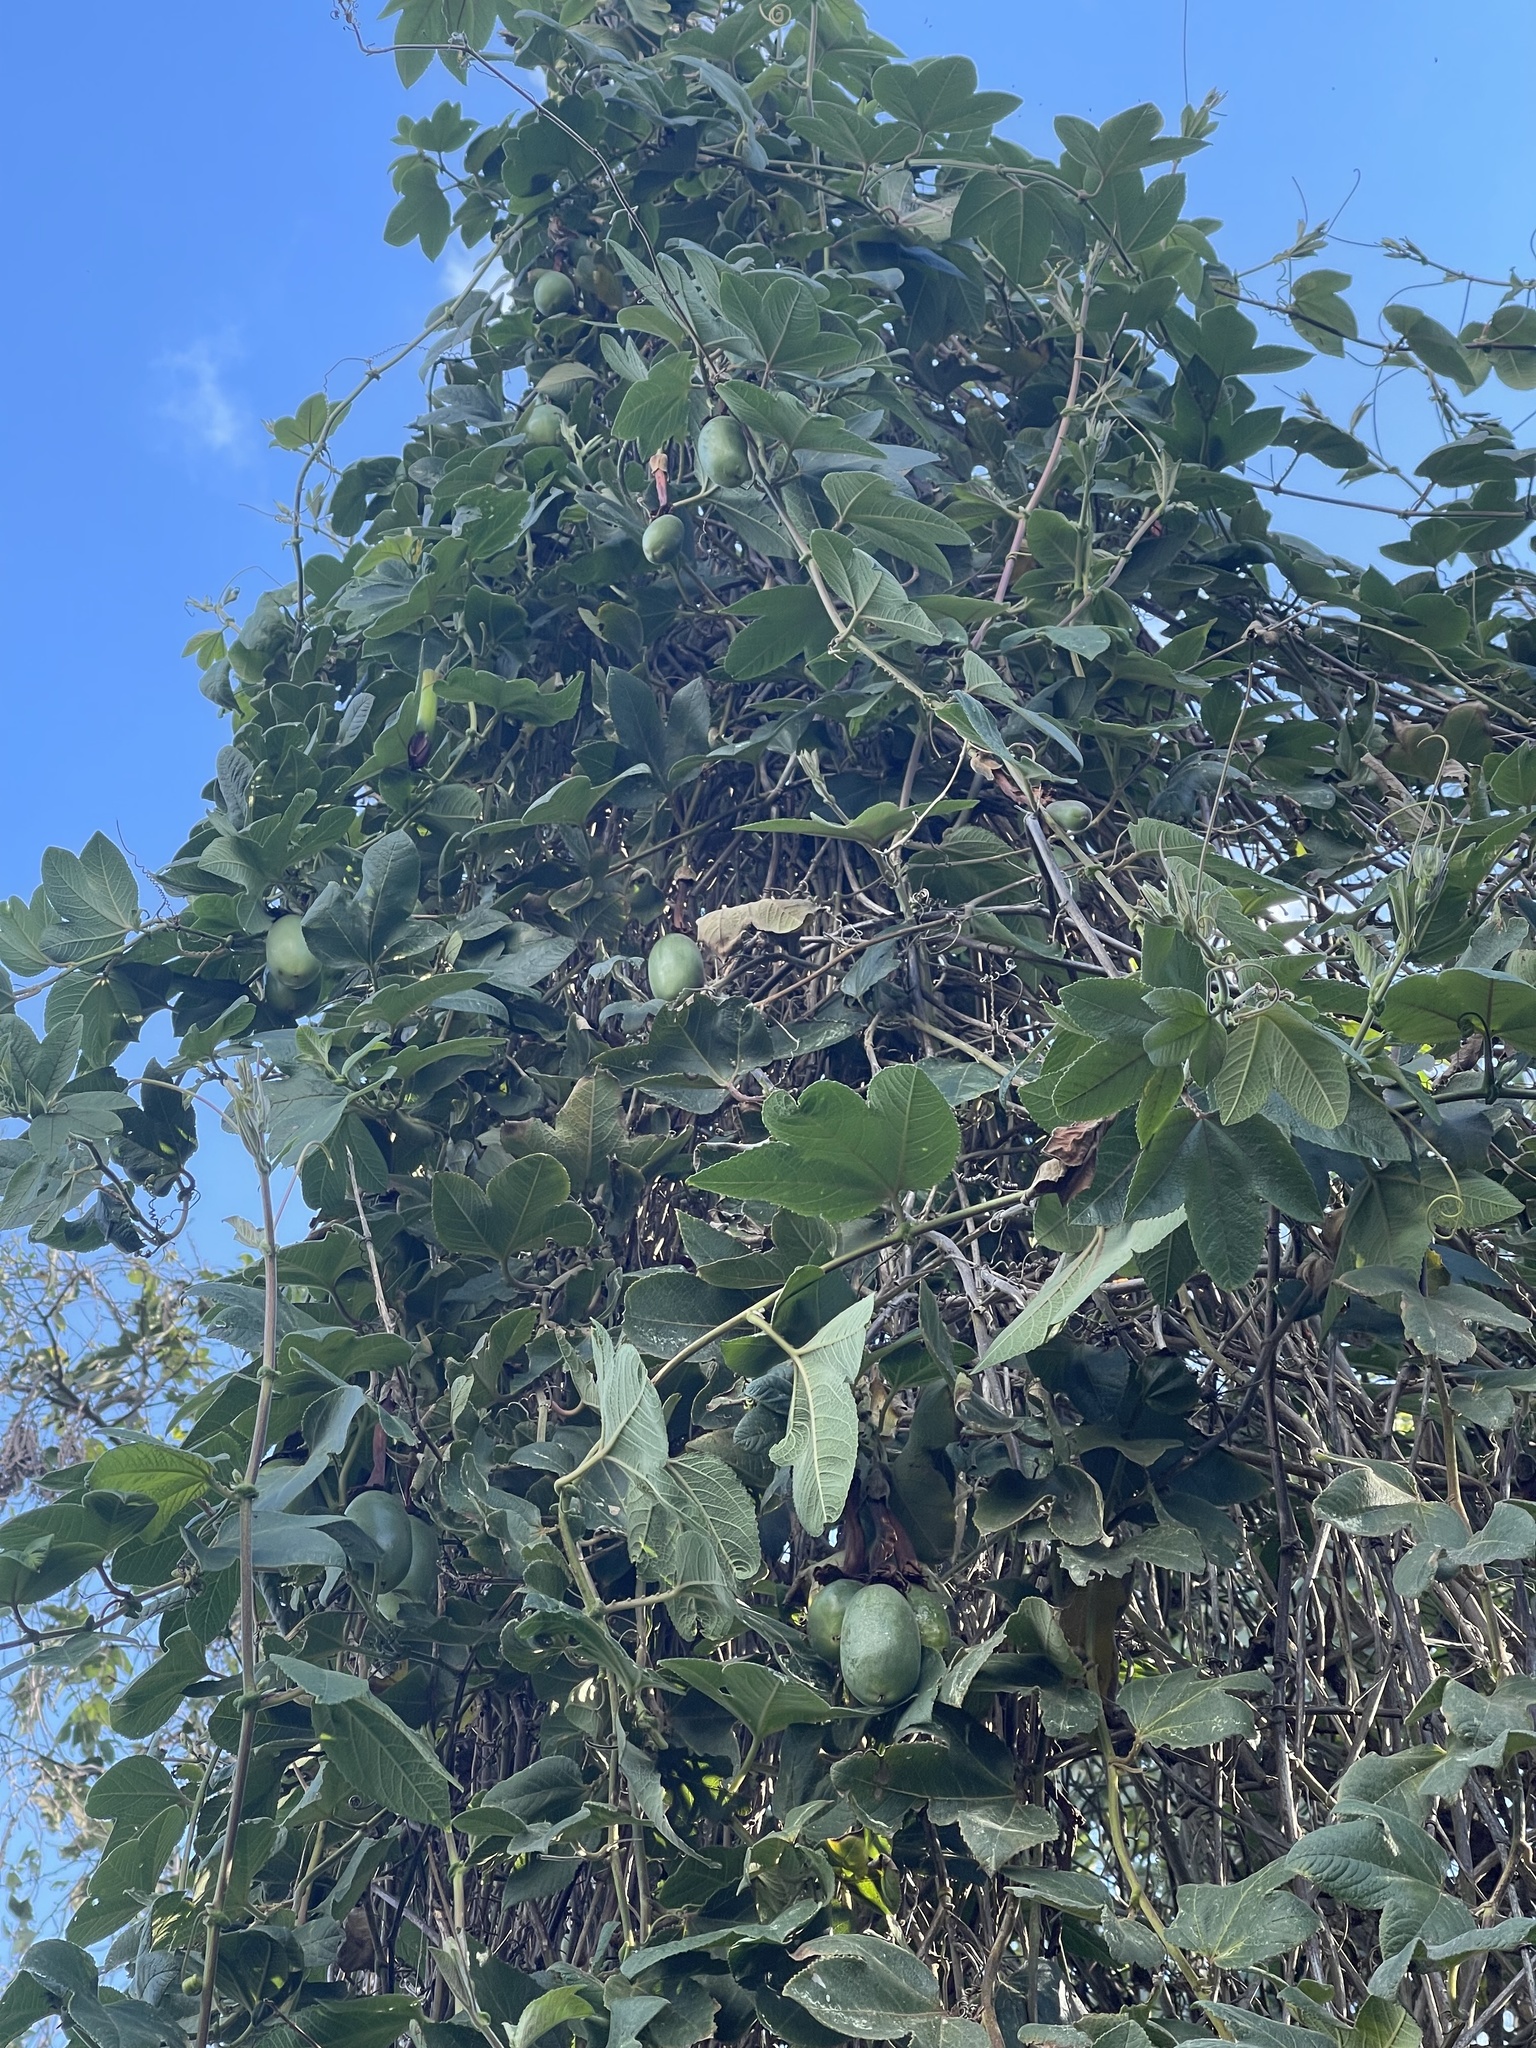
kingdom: Plantae
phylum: Tracheophyta
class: Magnoliopsida
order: Malpighiales
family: Passifloraceae
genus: Passiflora
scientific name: Passiflora tripartita
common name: Banana poka
